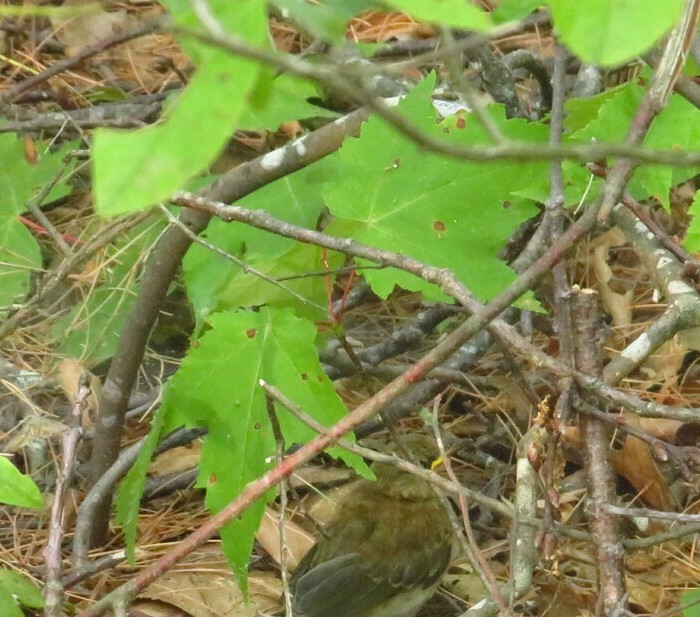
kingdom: Plantae
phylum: Tracheophyta
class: Magnoliopsida
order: Sapindales
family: Sapindaceae
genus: Acer
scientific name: Acer rubrum
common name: Red maple
